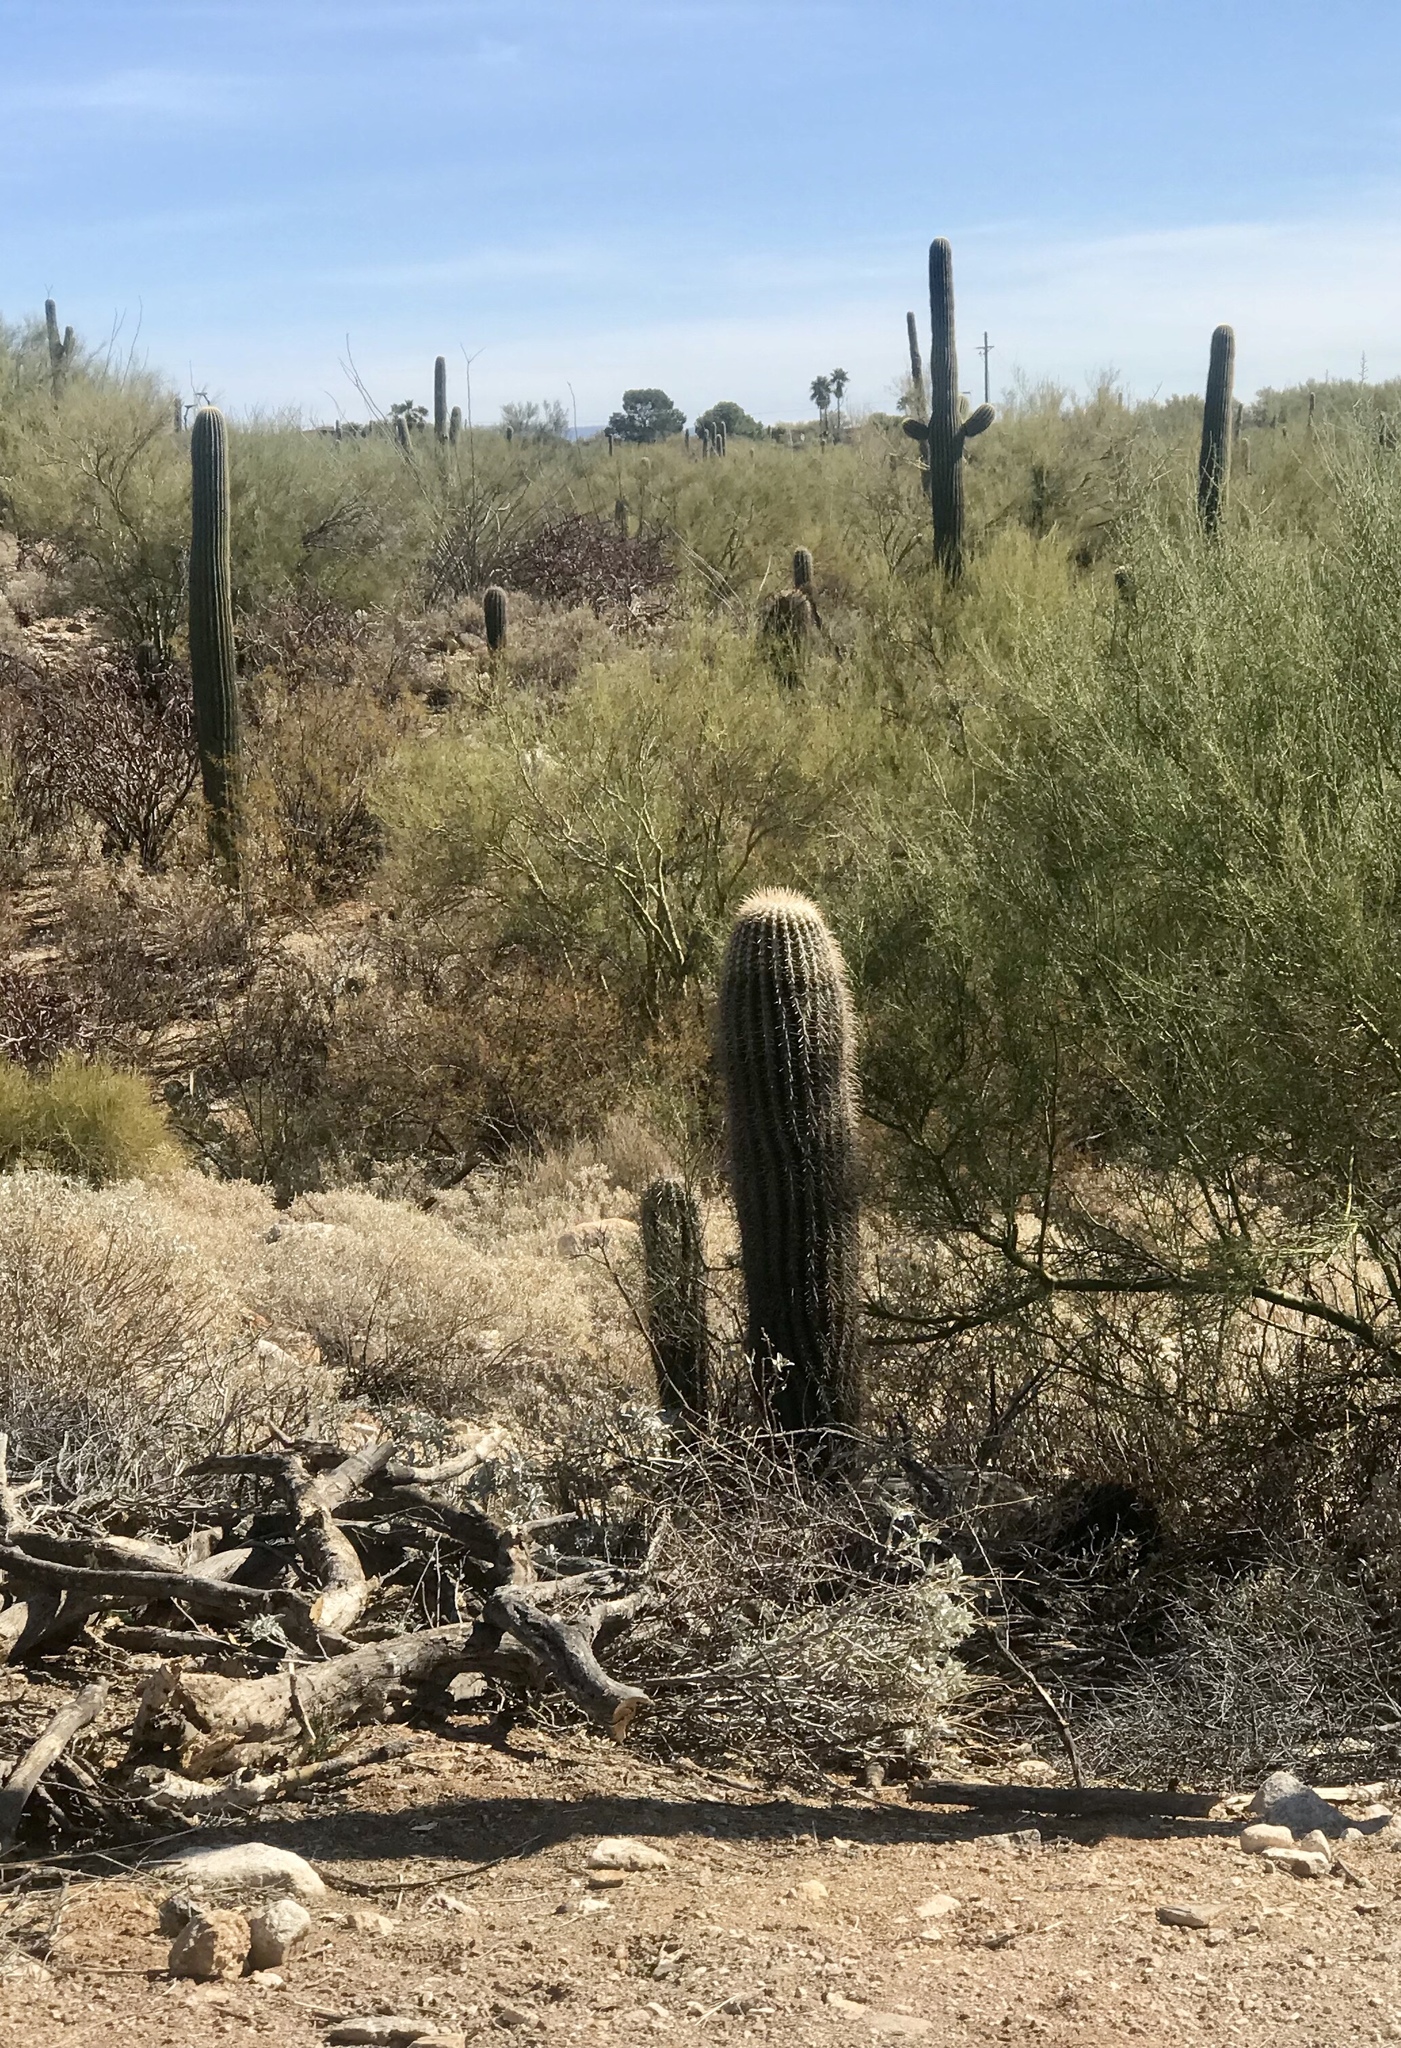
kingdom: Plantae
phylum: Tracheophyta
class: Magnoliopsida
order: Caryophyllales
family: Cactaceae
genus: Carnegiea
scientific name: Carnegiea gigantea
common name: Saguaro
